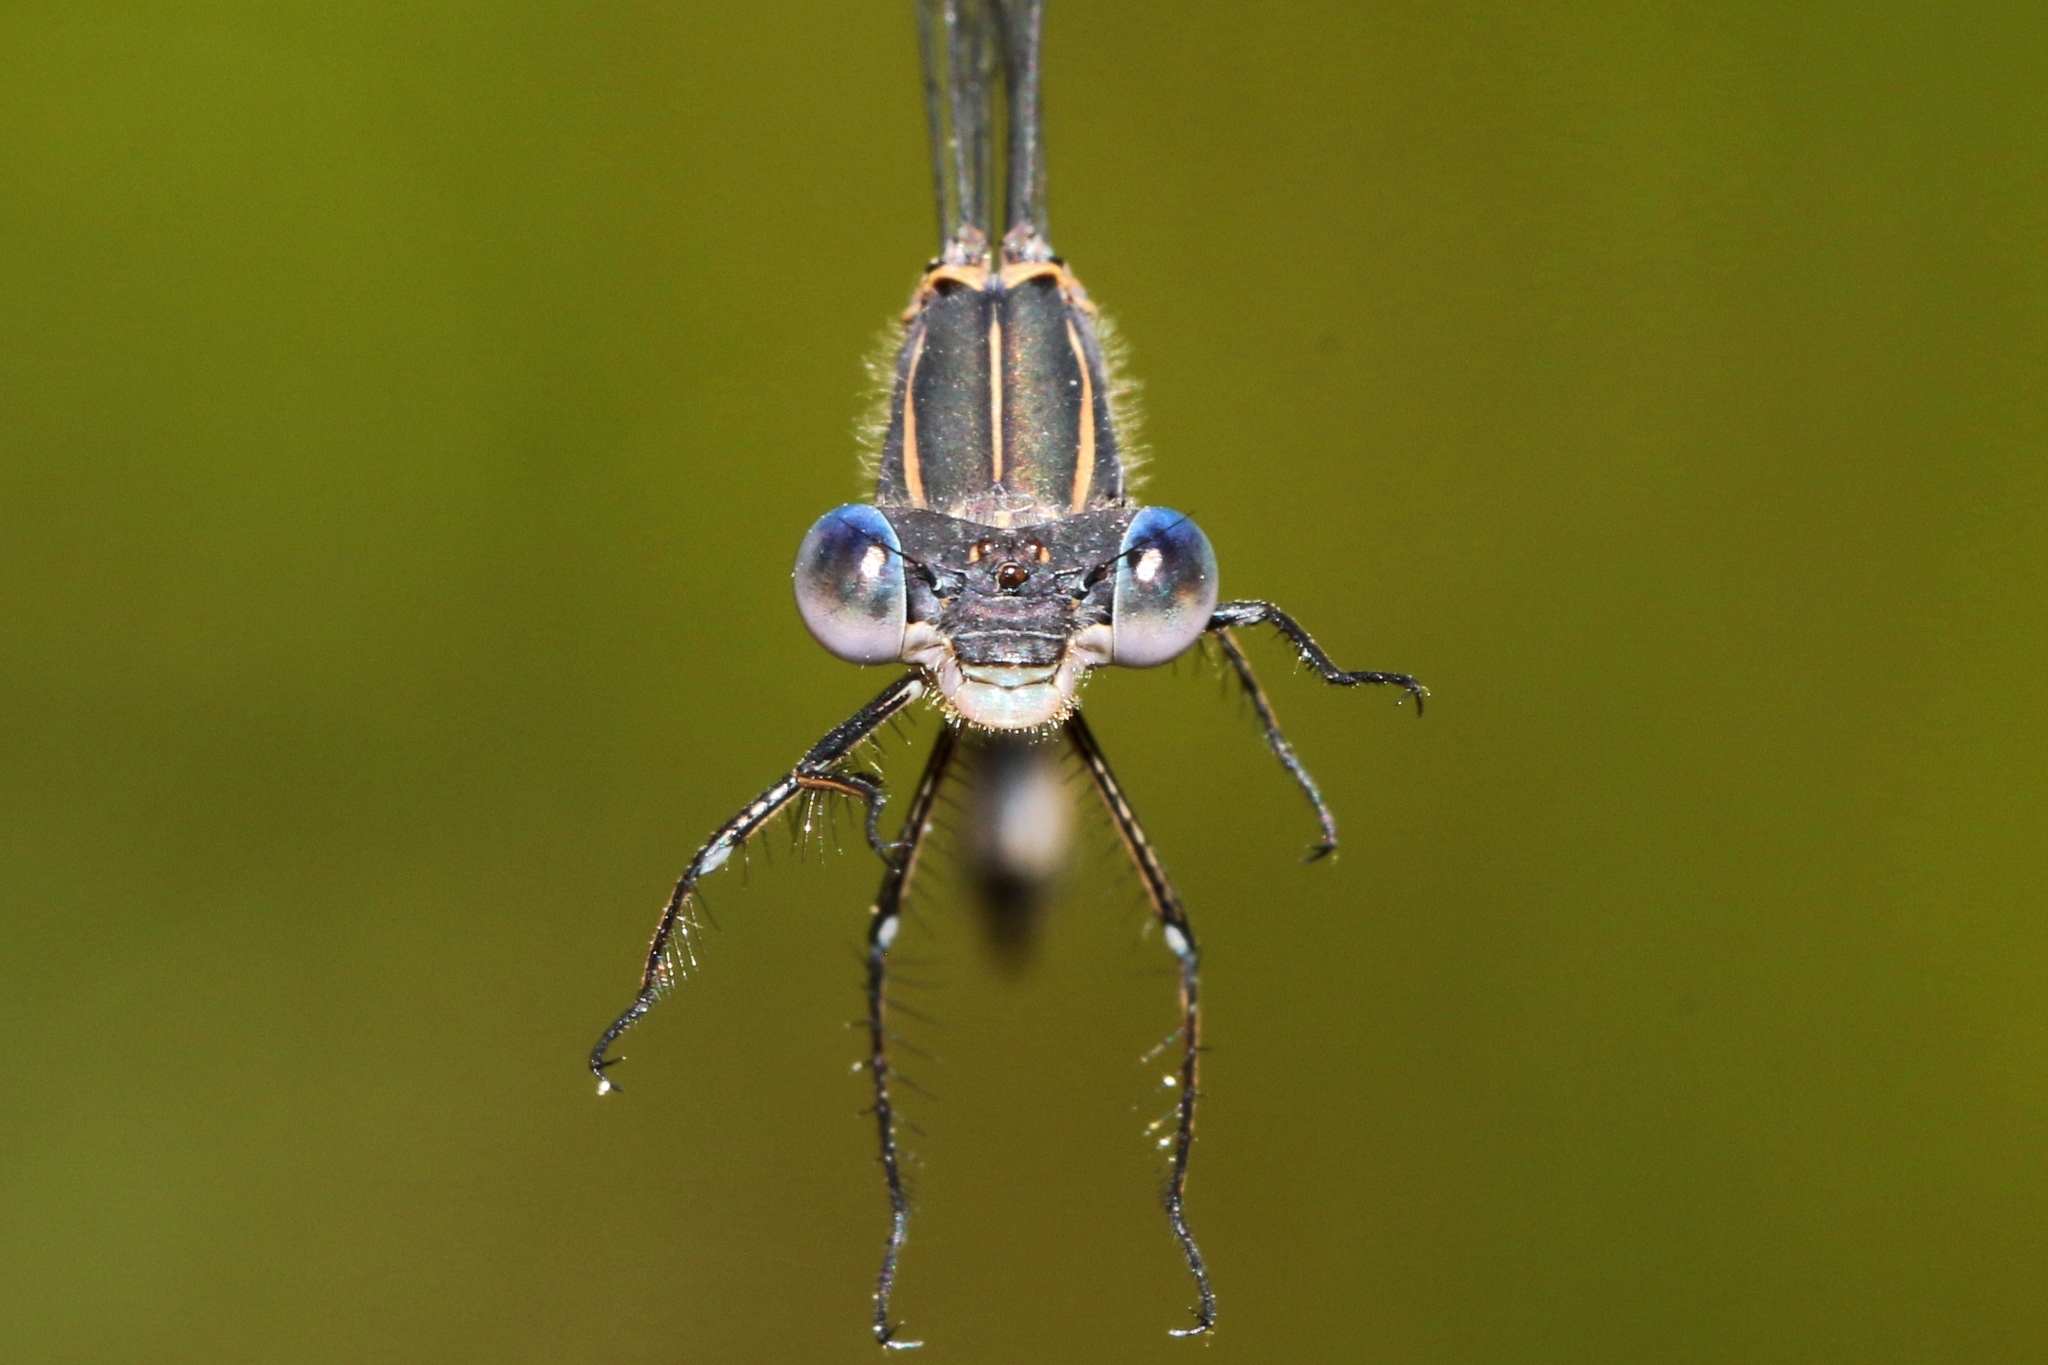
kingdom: Animalia
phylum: Arthropoda
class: Insecta
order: Odonata
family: Lestidae
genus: Lestes
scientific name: Lestes congener
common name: Spotted spreadwing
